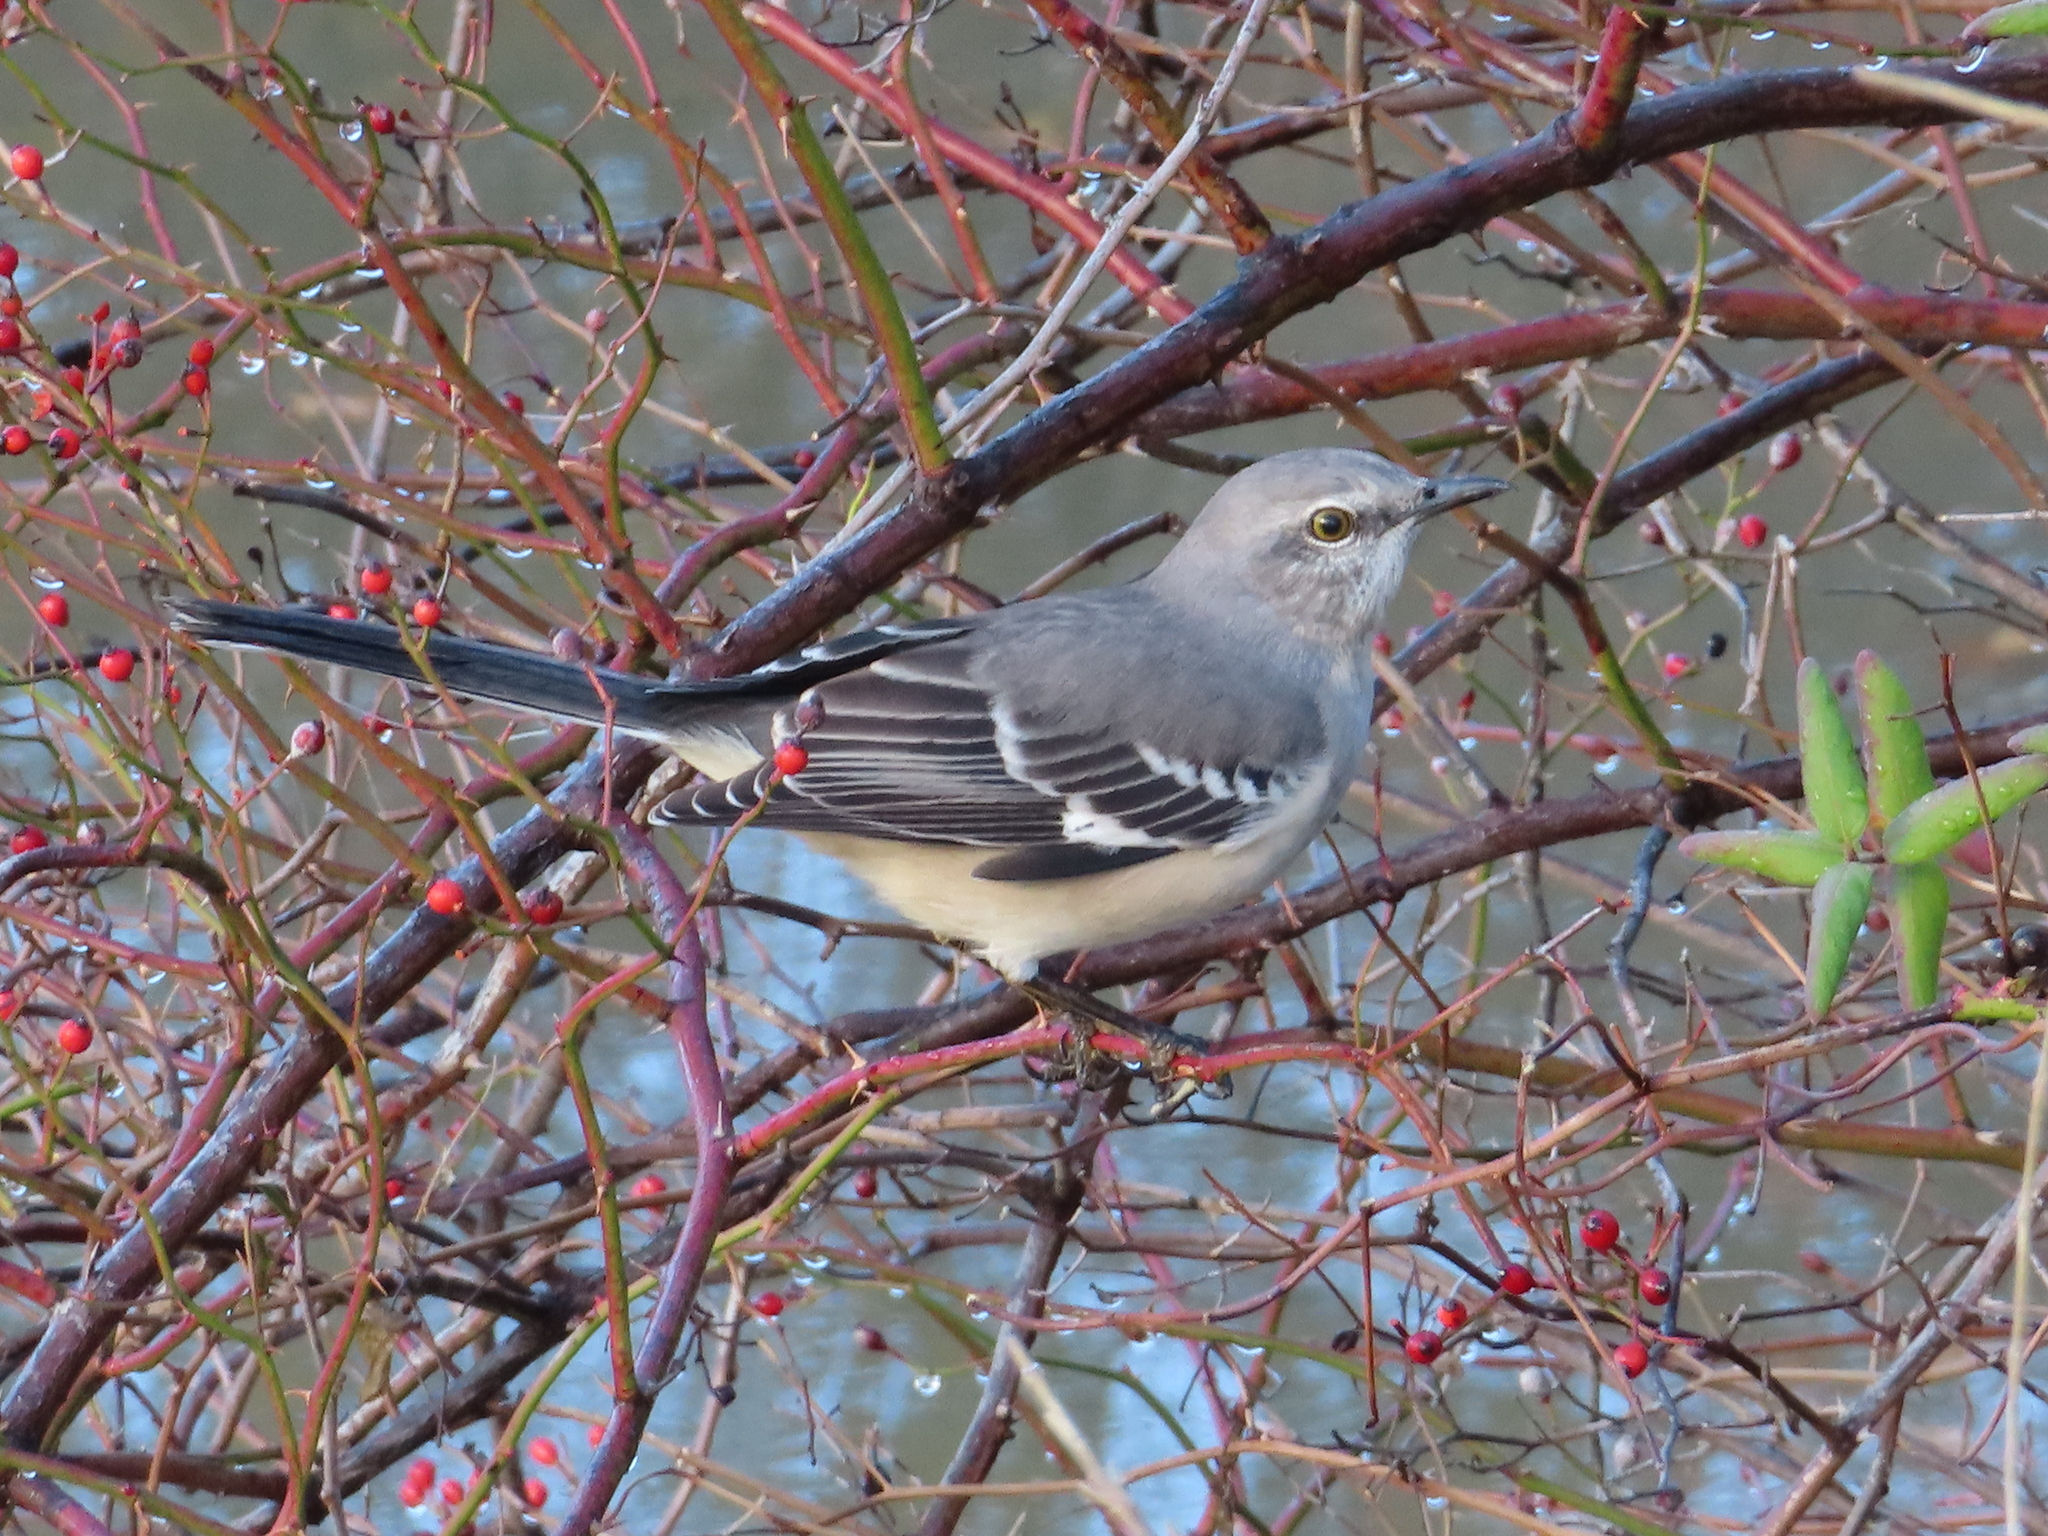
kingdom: Animalia
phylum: Chordata
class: Aves
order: Passeriformes
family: Mimidae
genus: Mimus
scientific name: Mimus polyglottos
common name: Northern mockingbird
